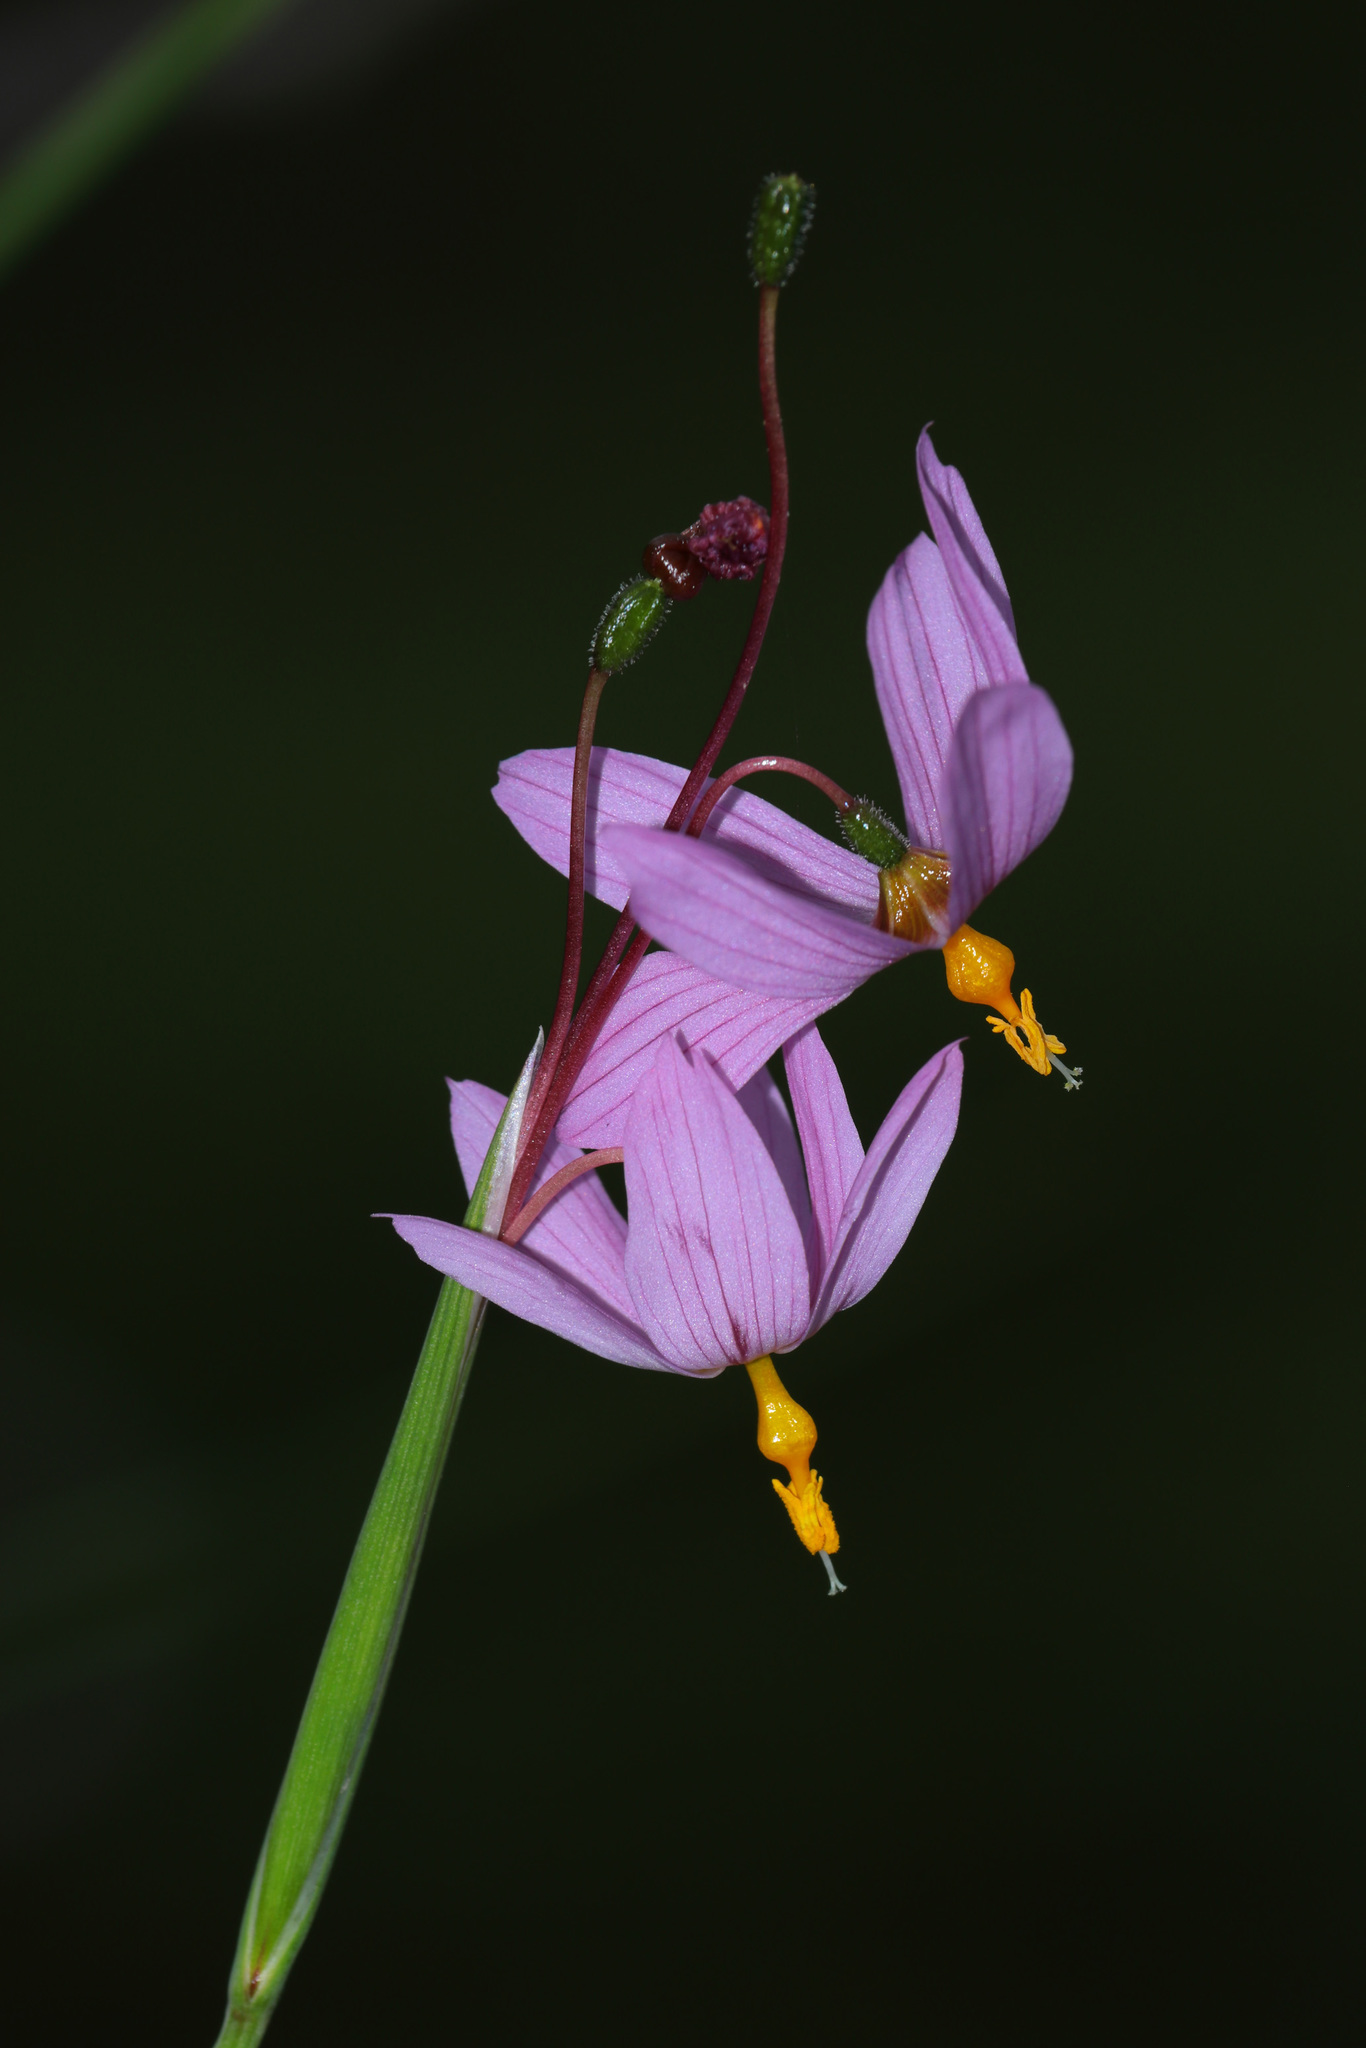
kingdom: Plantae
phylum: Tracheophyta
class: Liliopsida
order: Asparagales
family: Iridaceae
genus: Olsynium
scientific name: Olsynium junceum
